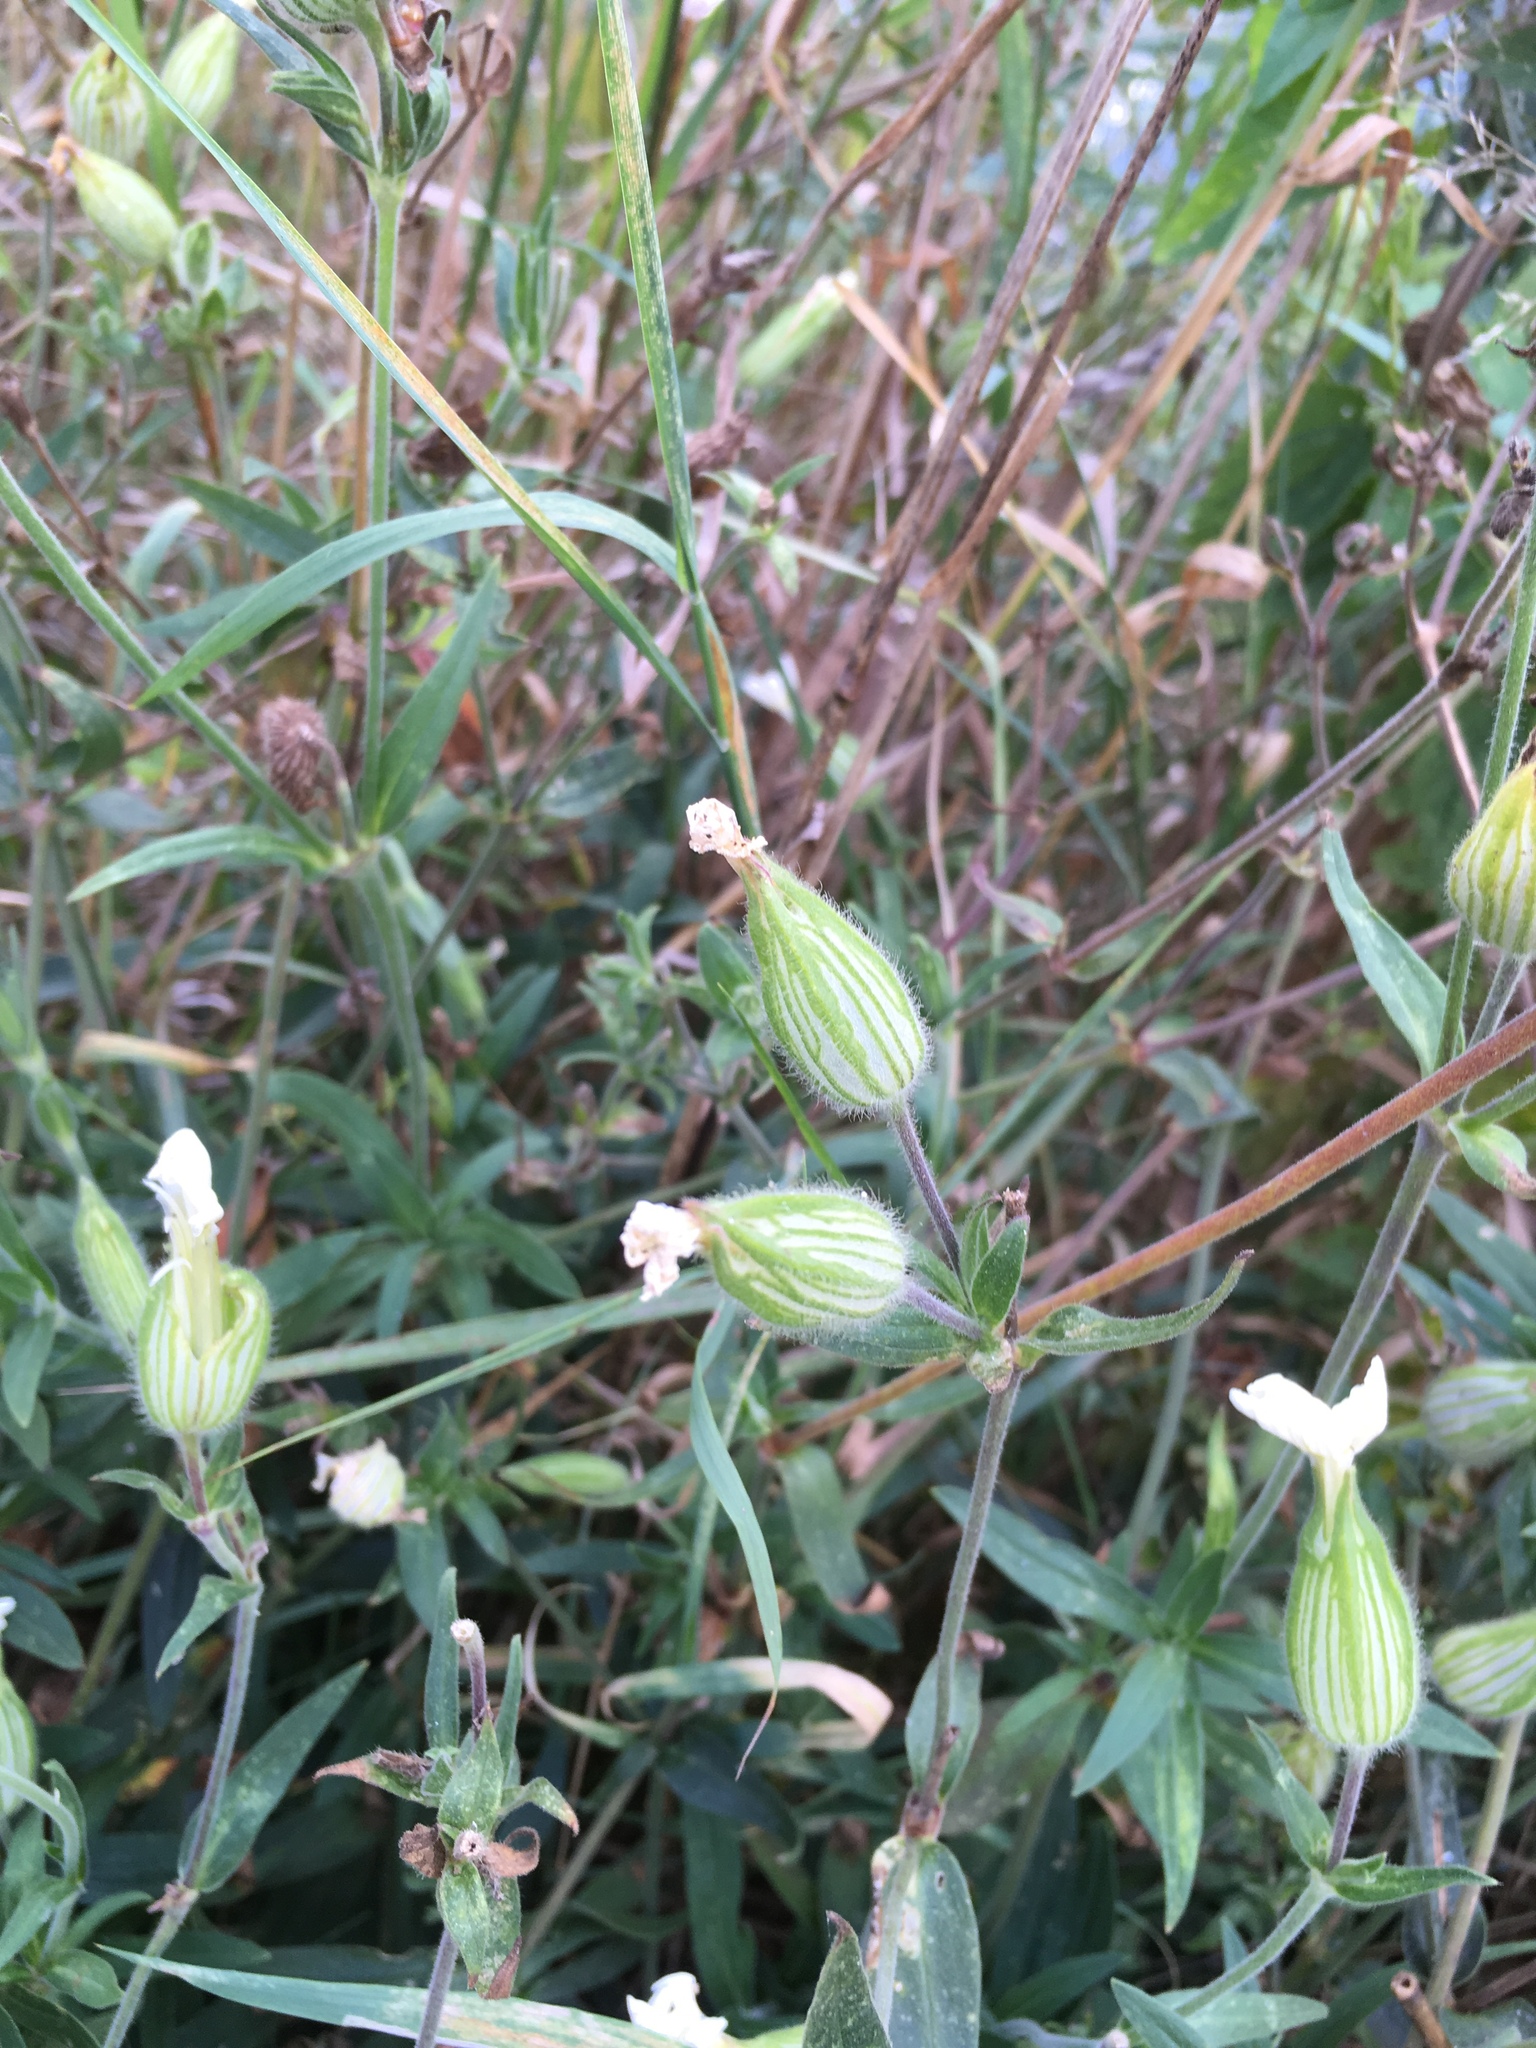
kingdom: Plantae
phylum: Tracheophyta
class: Magnoliopsida
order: Caryophyllales
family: Caryophyllaceae
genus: Silene
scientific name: Silene latifolia
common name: White campion
